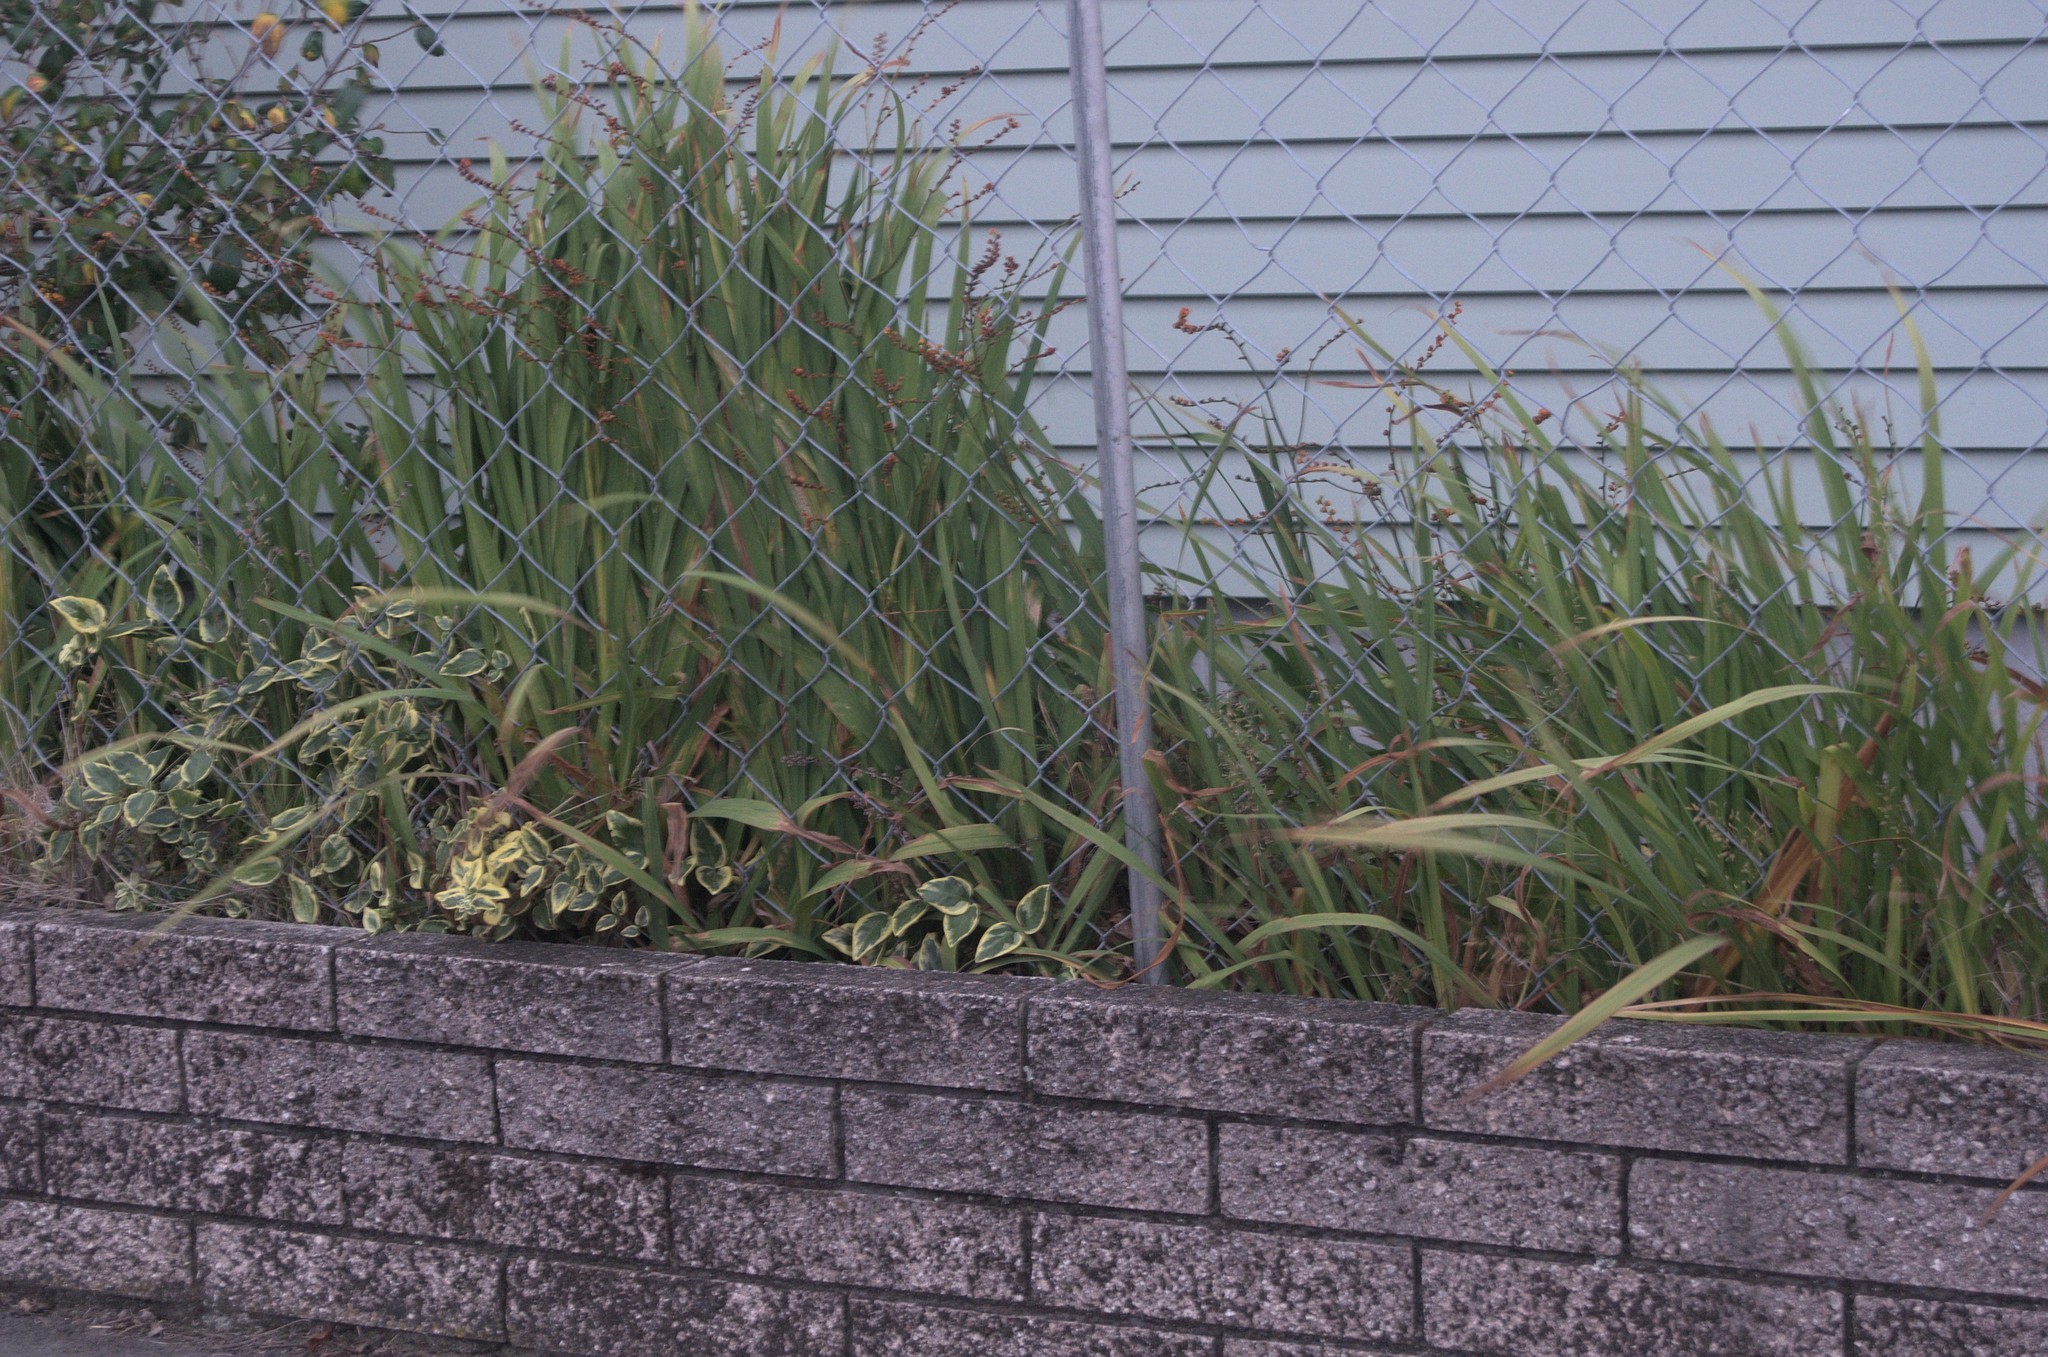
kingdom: Plantae
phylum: Tracheophyta
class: Liliopsida
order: Asparagales
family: Iridaceae
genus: Crocosmia
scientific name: Crocosmia crocosmiiflora
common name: Montbretia
